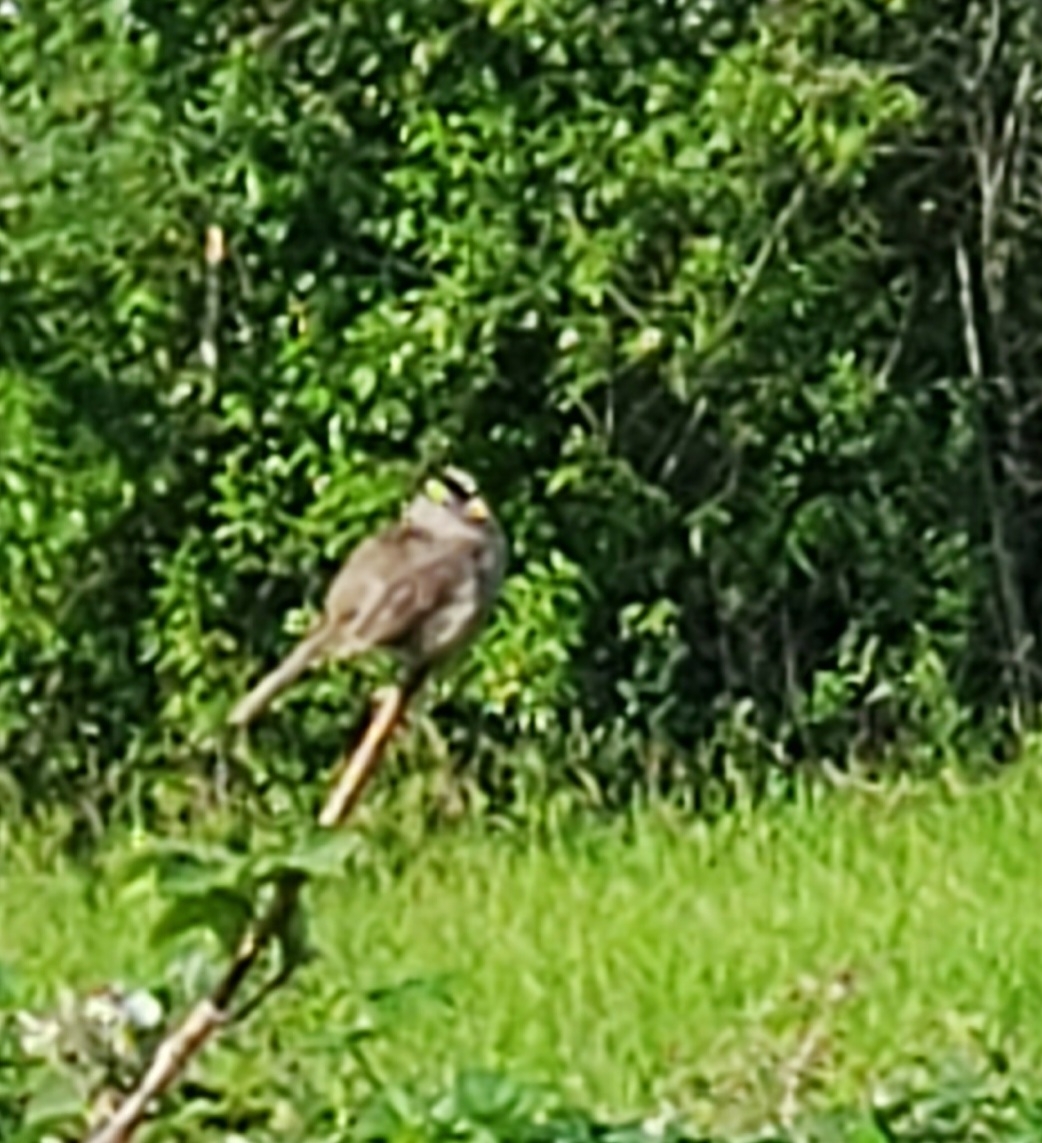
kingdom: Animalia
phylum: Chordata
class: Aves
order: Passeriformes
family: Passerellidae
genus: Zonotrichia
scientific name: Zonotrichia leucophrys
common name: White-crowned sparrow
